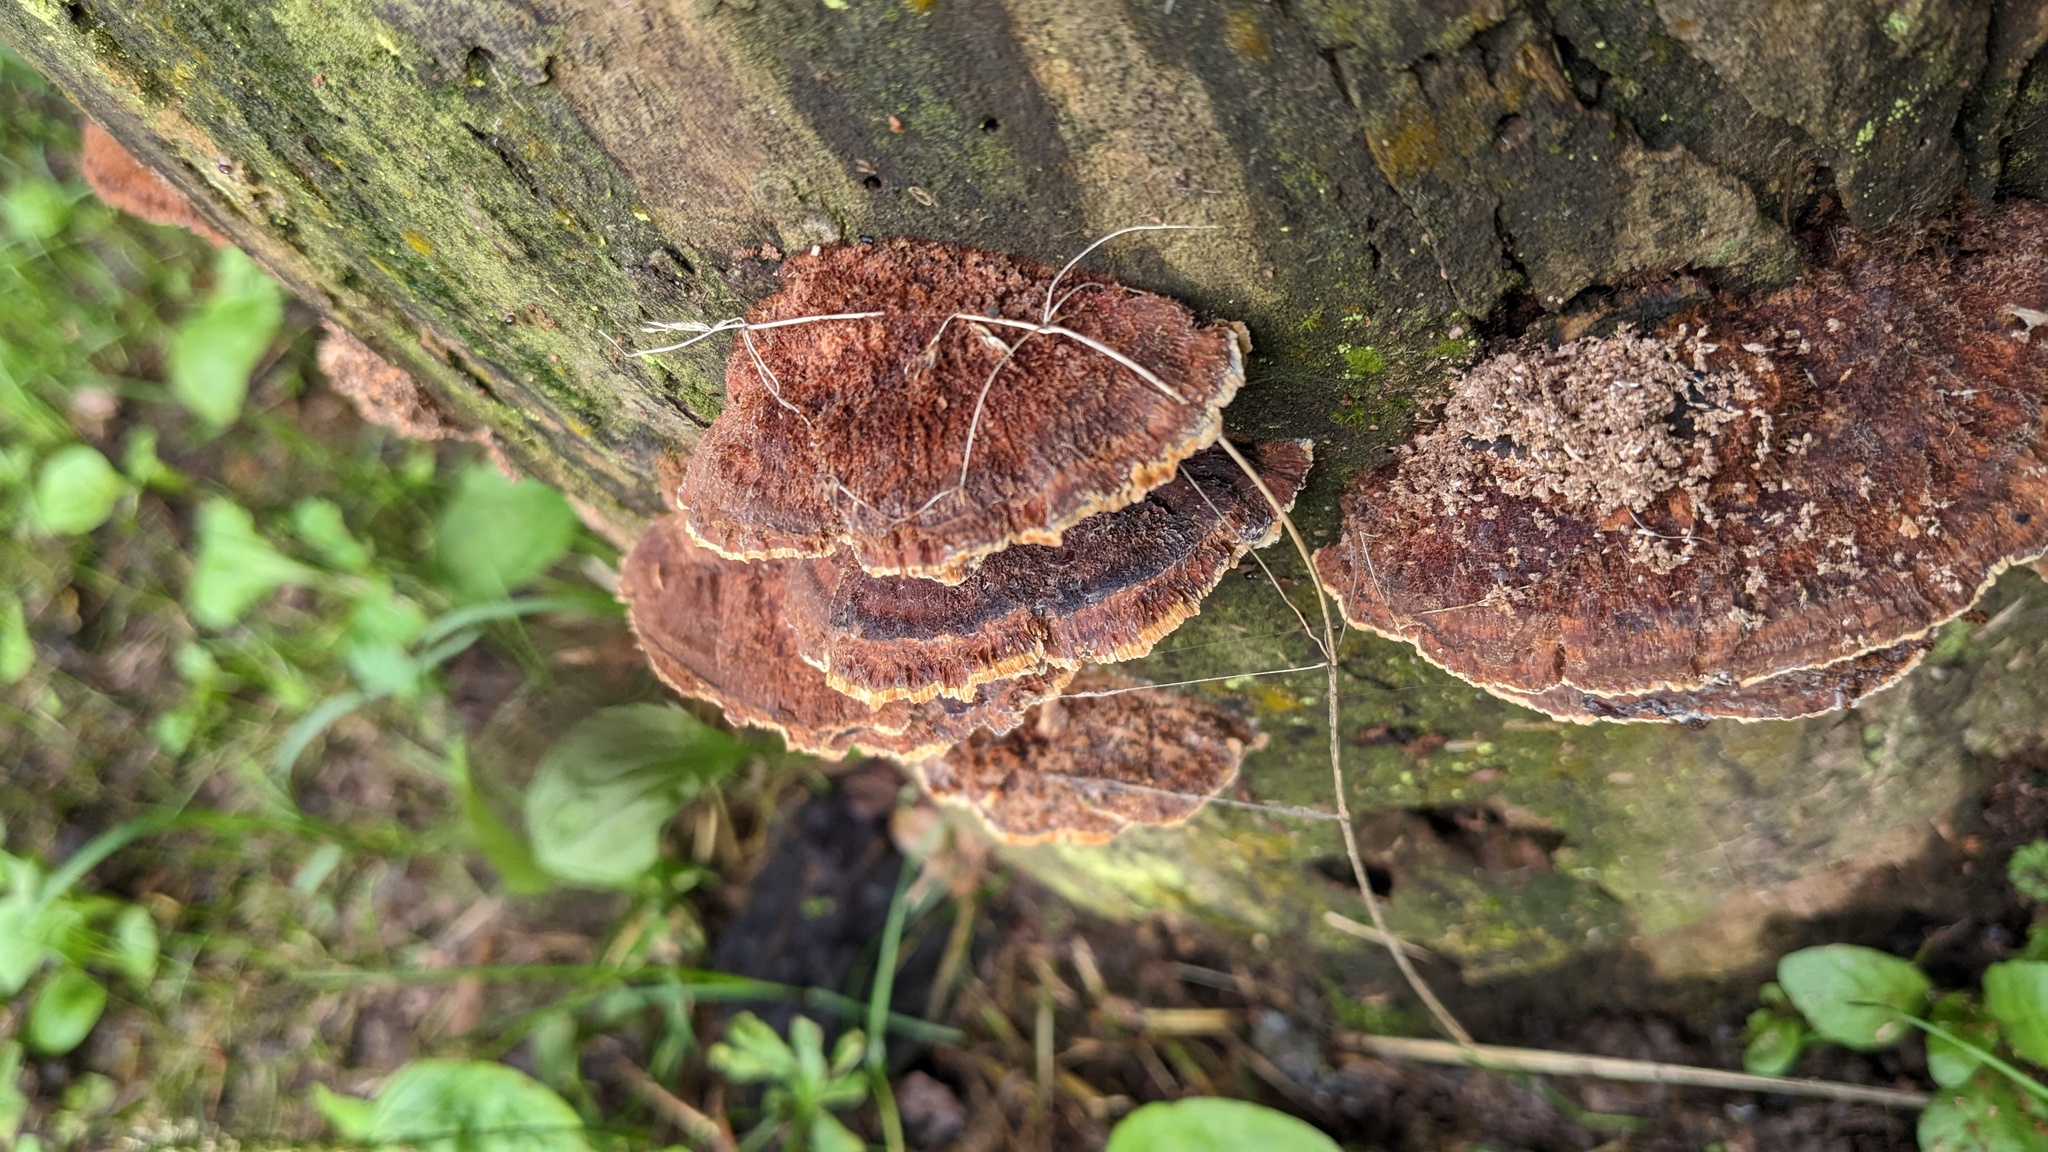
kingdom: Fungi
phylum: Basidiomycota
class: Agaricomycetes
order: Hymenochaetales
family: Hymenochaetaceae
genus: Phellinus
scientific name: Phellinus gilvus
